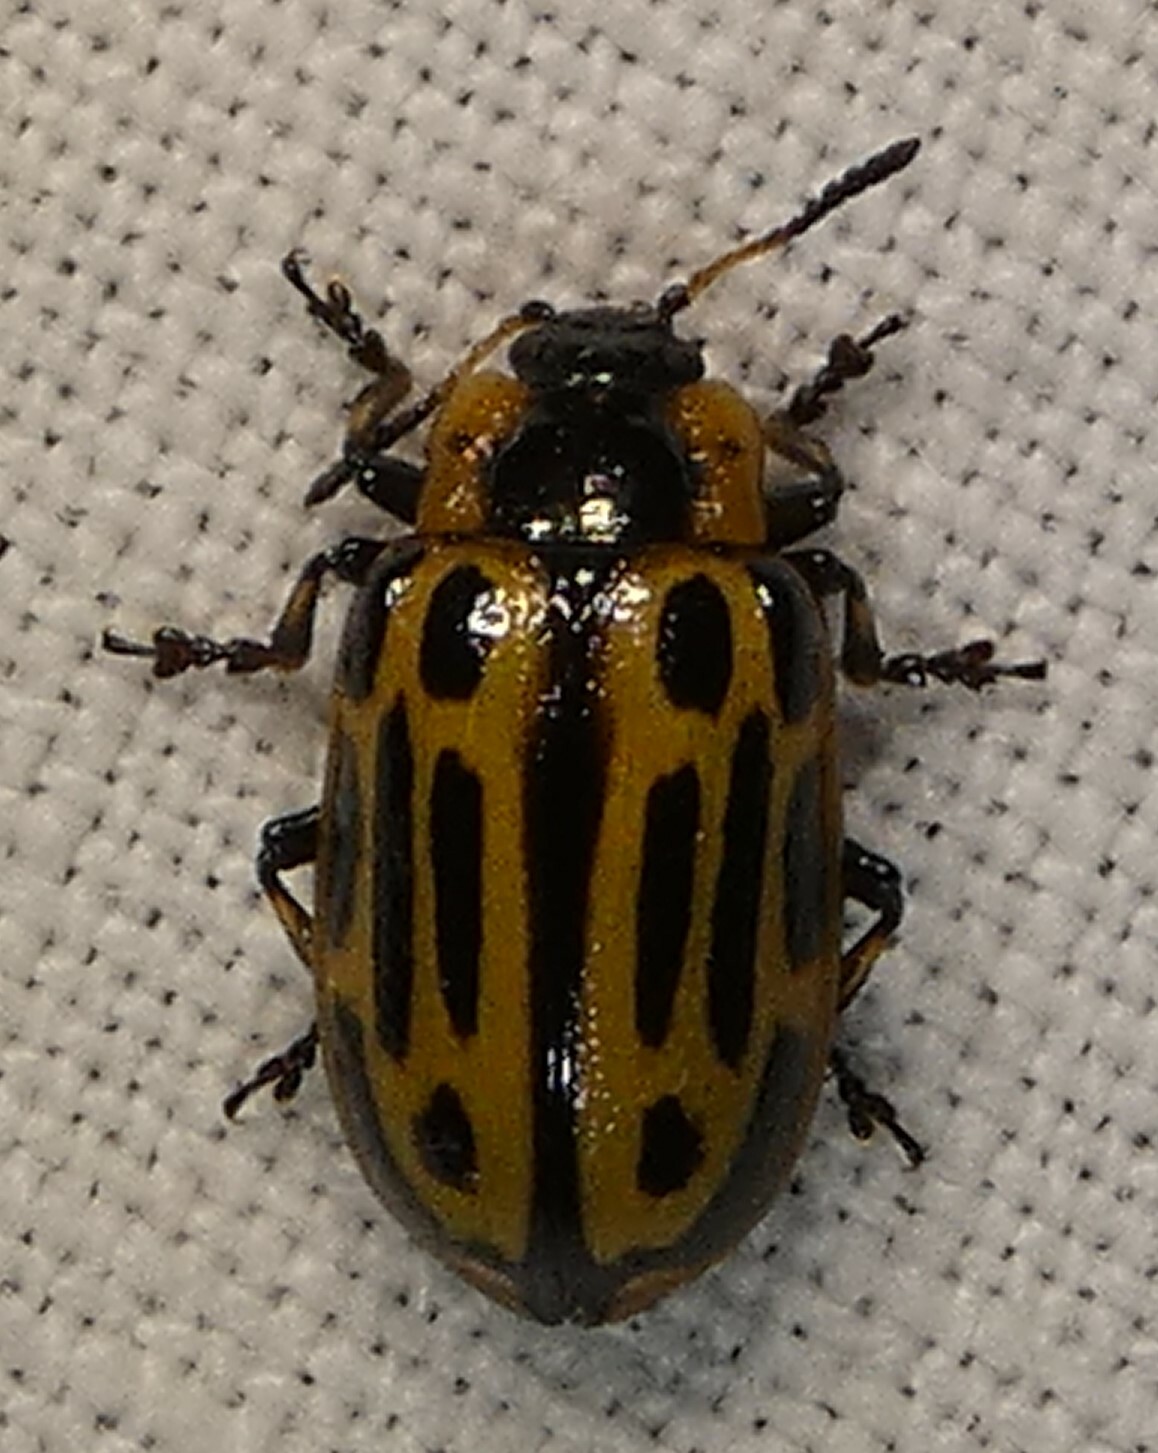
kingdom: Animalia
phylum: Arthropoda
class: Insecta
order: Coleoptera
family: Chrysomelidae
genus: Aethiopocassis
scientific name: Aethiopocassis scripta
